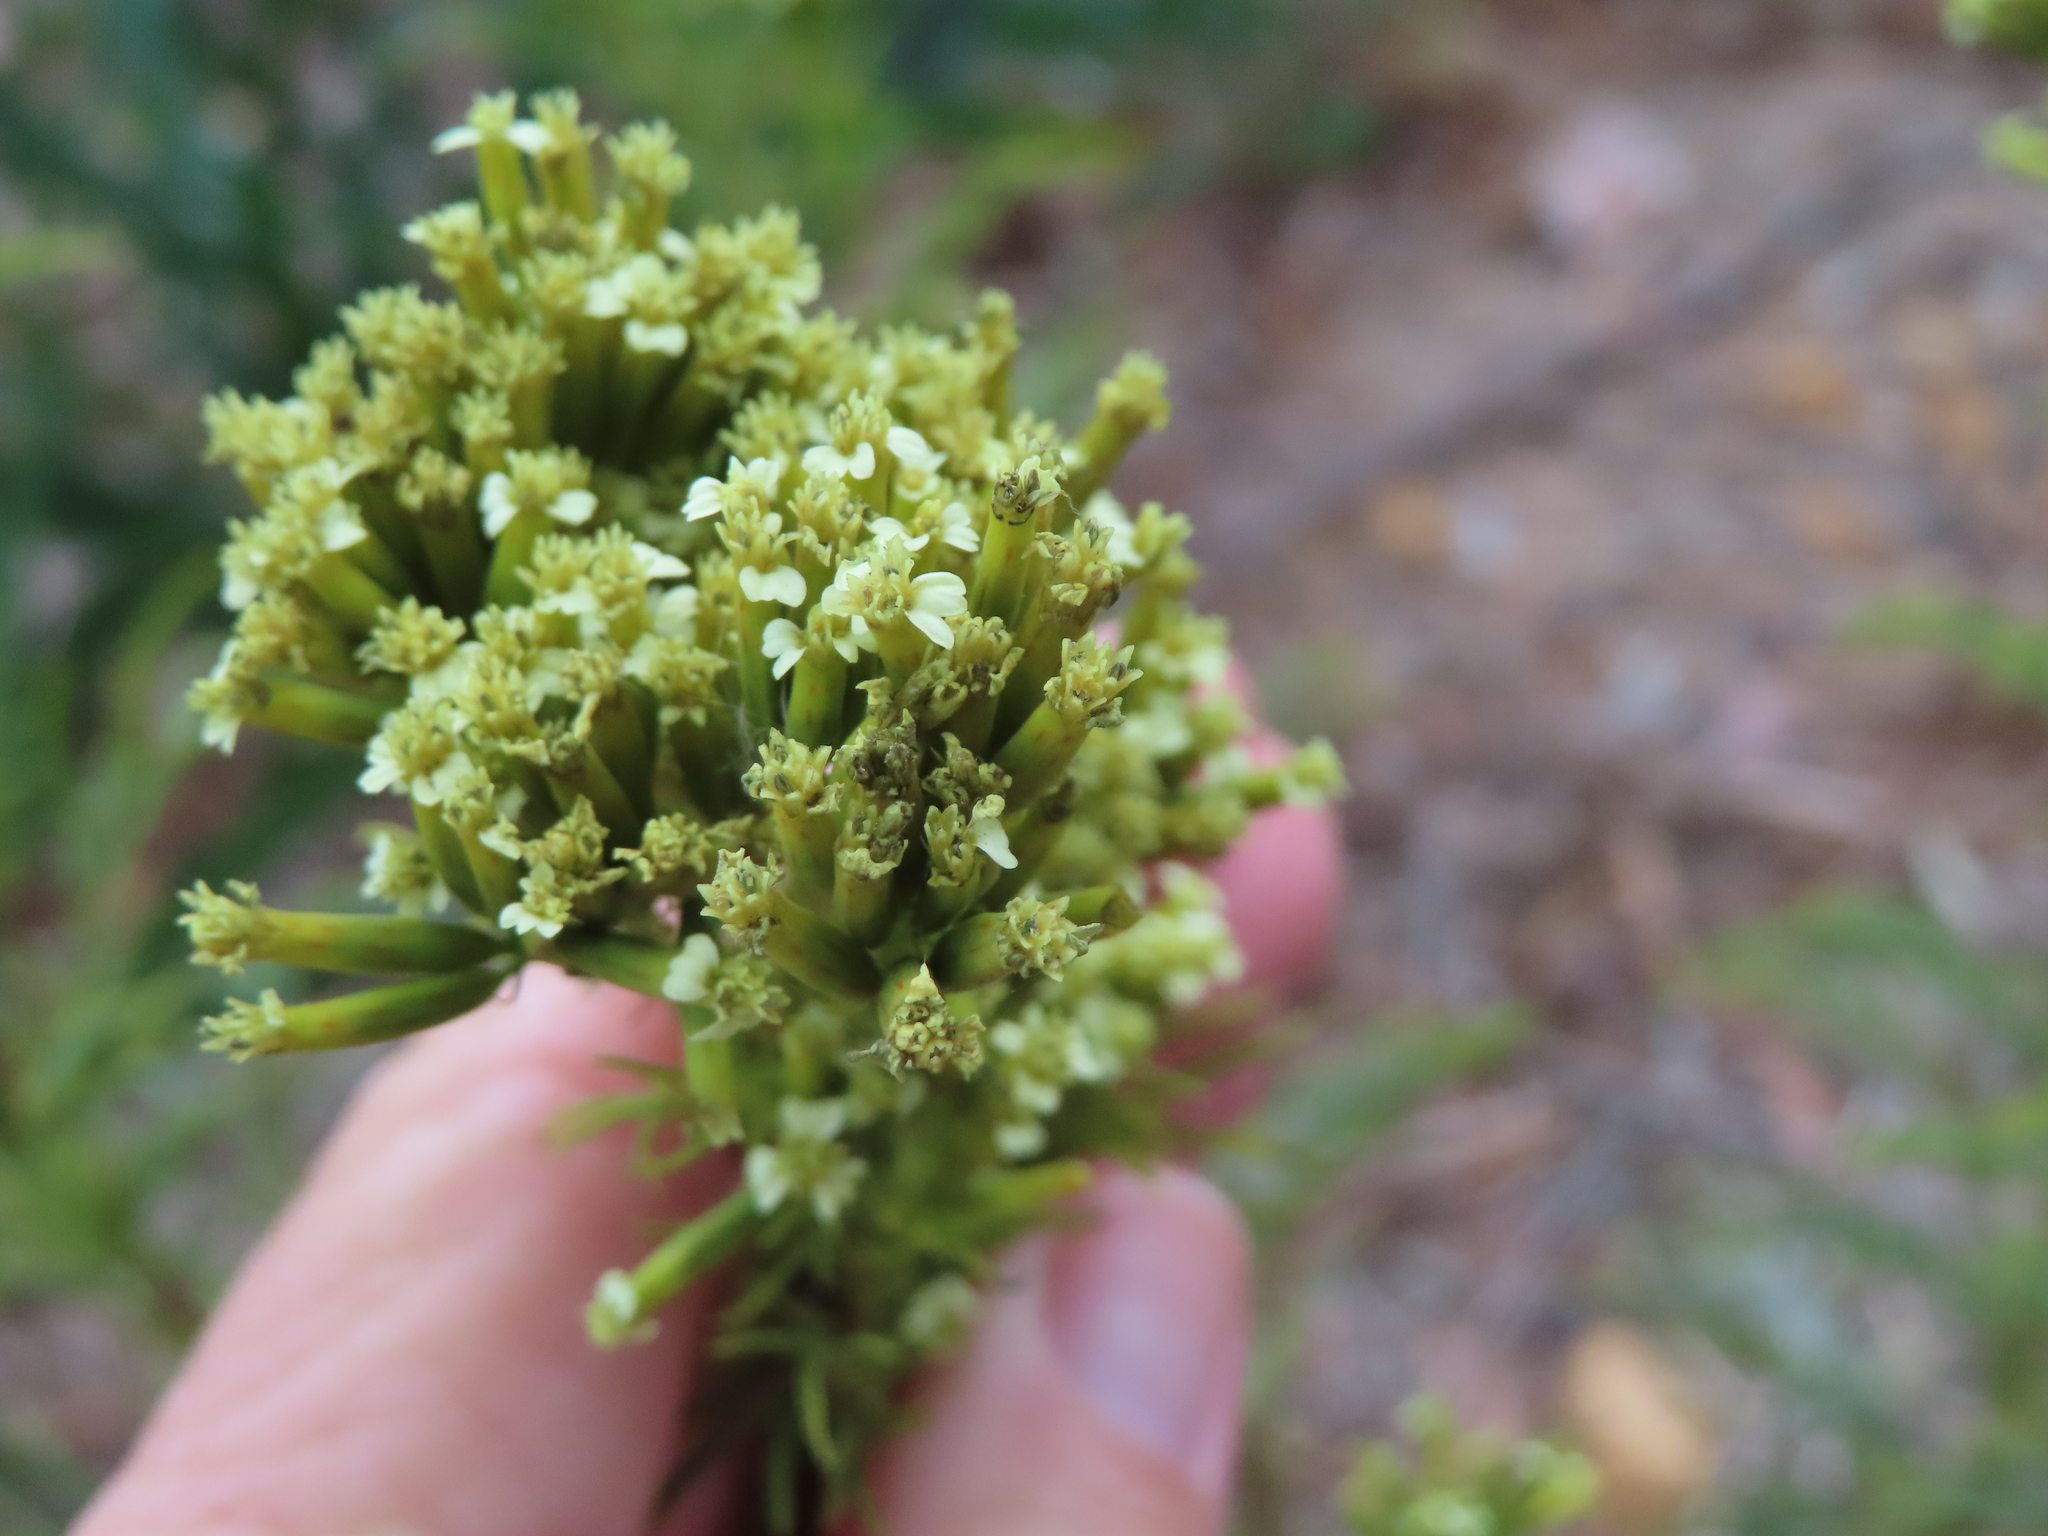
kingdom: Plantae
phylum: Tracheophyta
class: Magnoliopsida
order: Asterales
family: Asteraceae
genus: Tagetes
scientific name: Tagetes minuta
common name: Muster john henry
